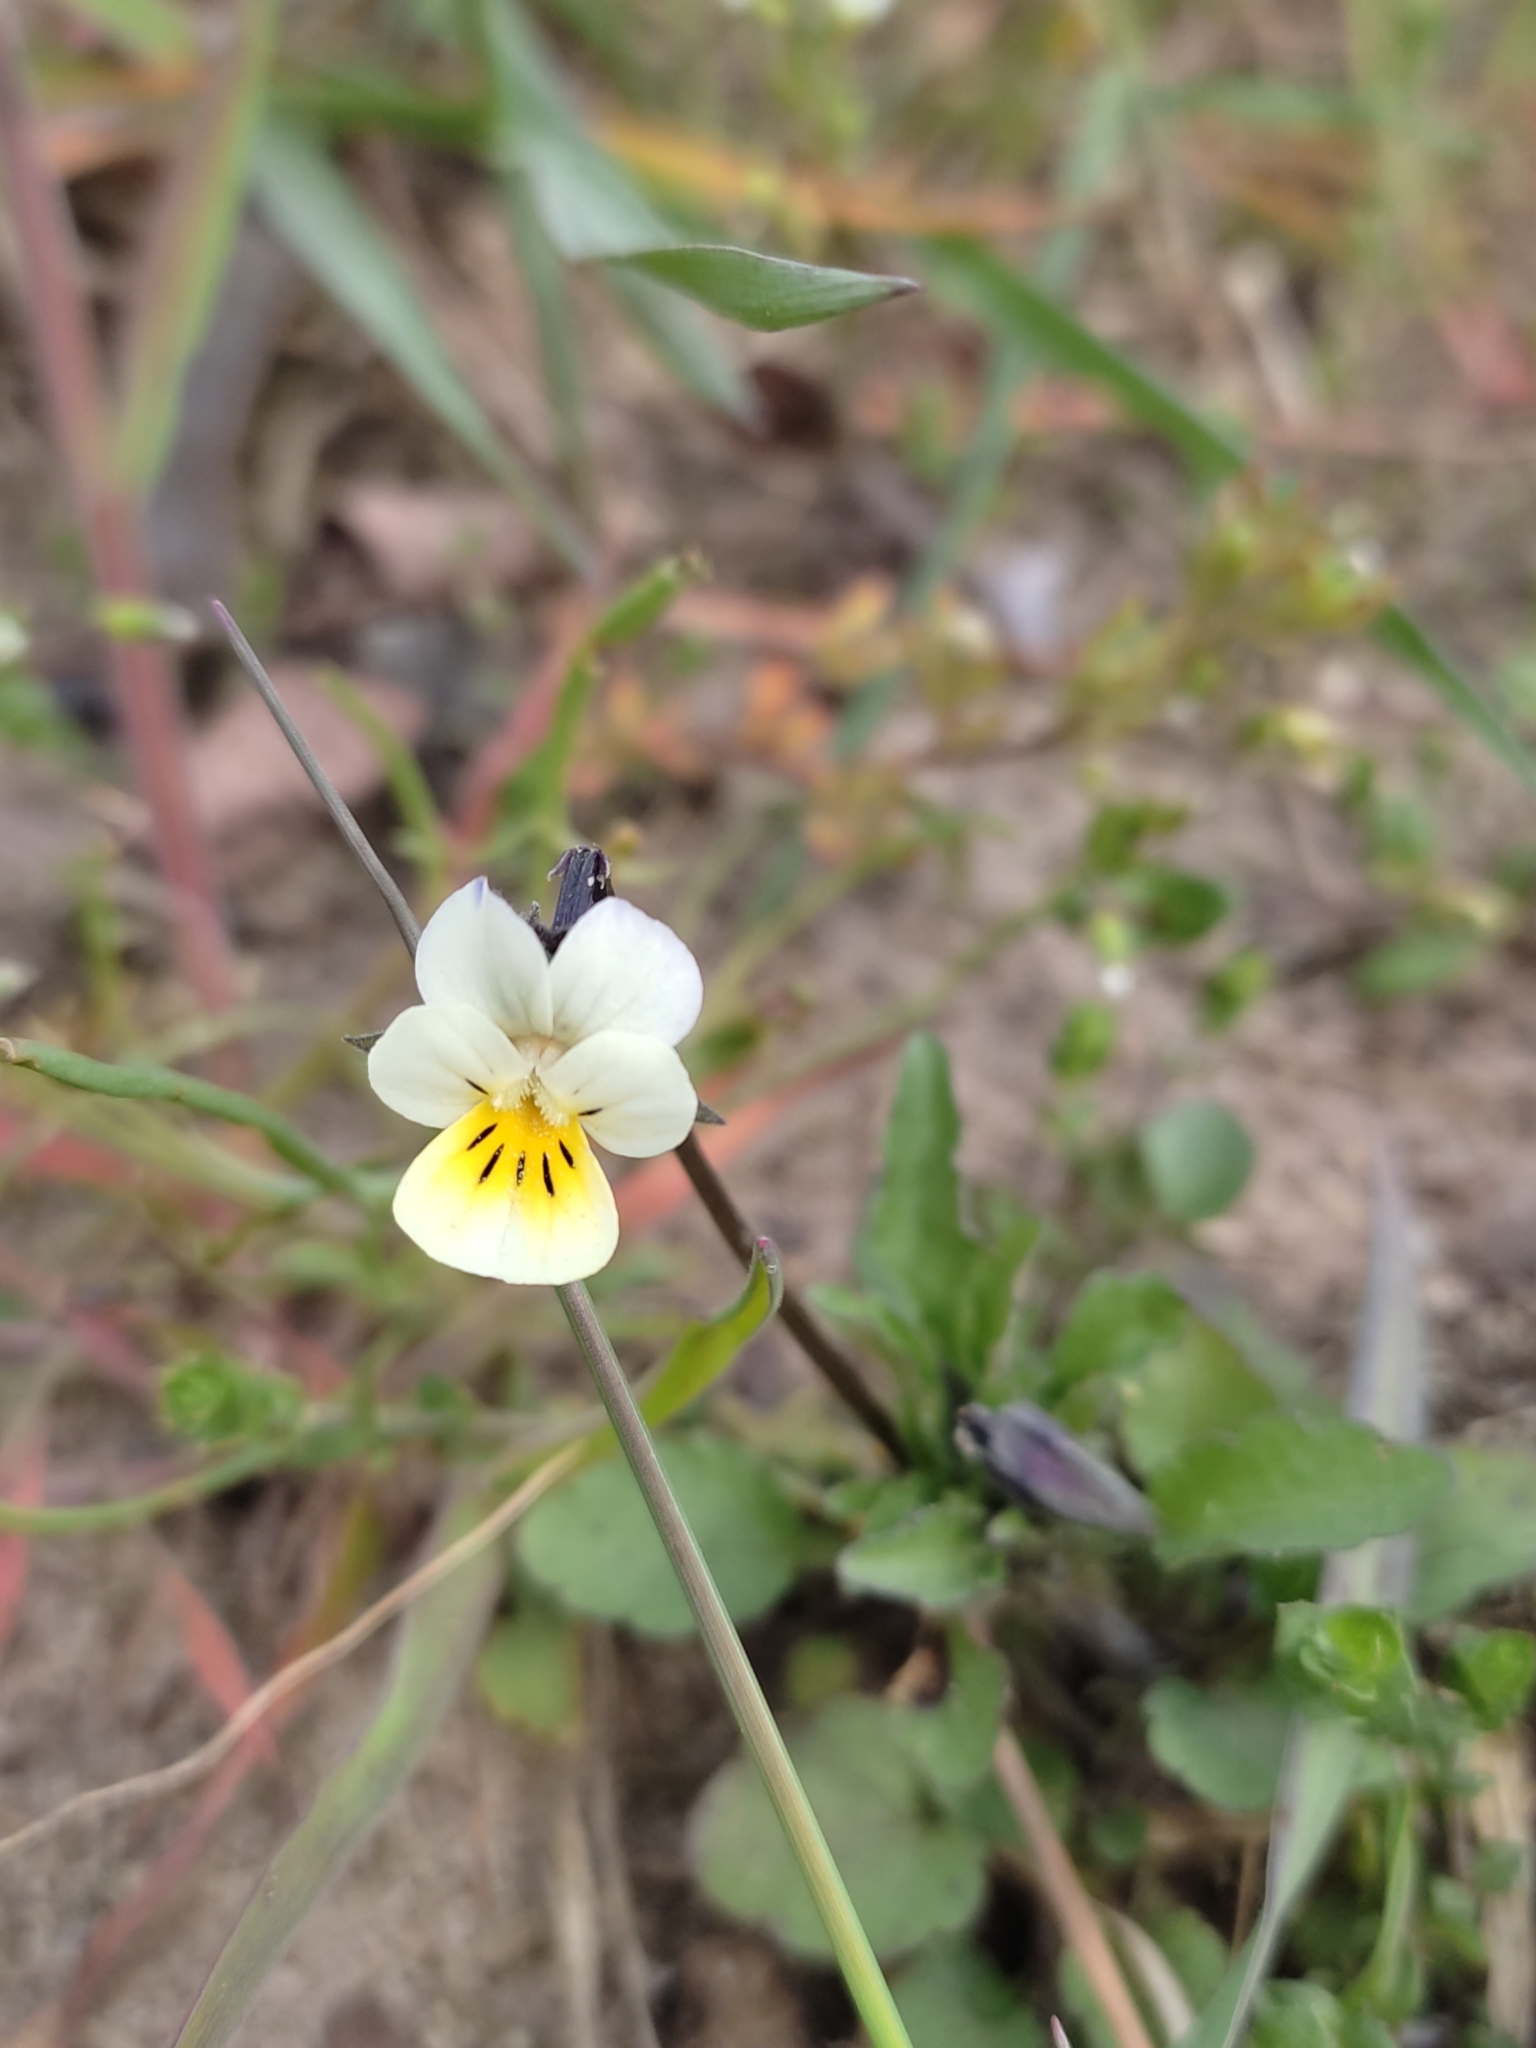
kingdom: Plantae
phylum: Tracheophyta
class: Magnoliopsida
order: Malpighiales
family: Violaceae
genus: Viola
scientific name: Viola arvensis
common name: Field pansy
